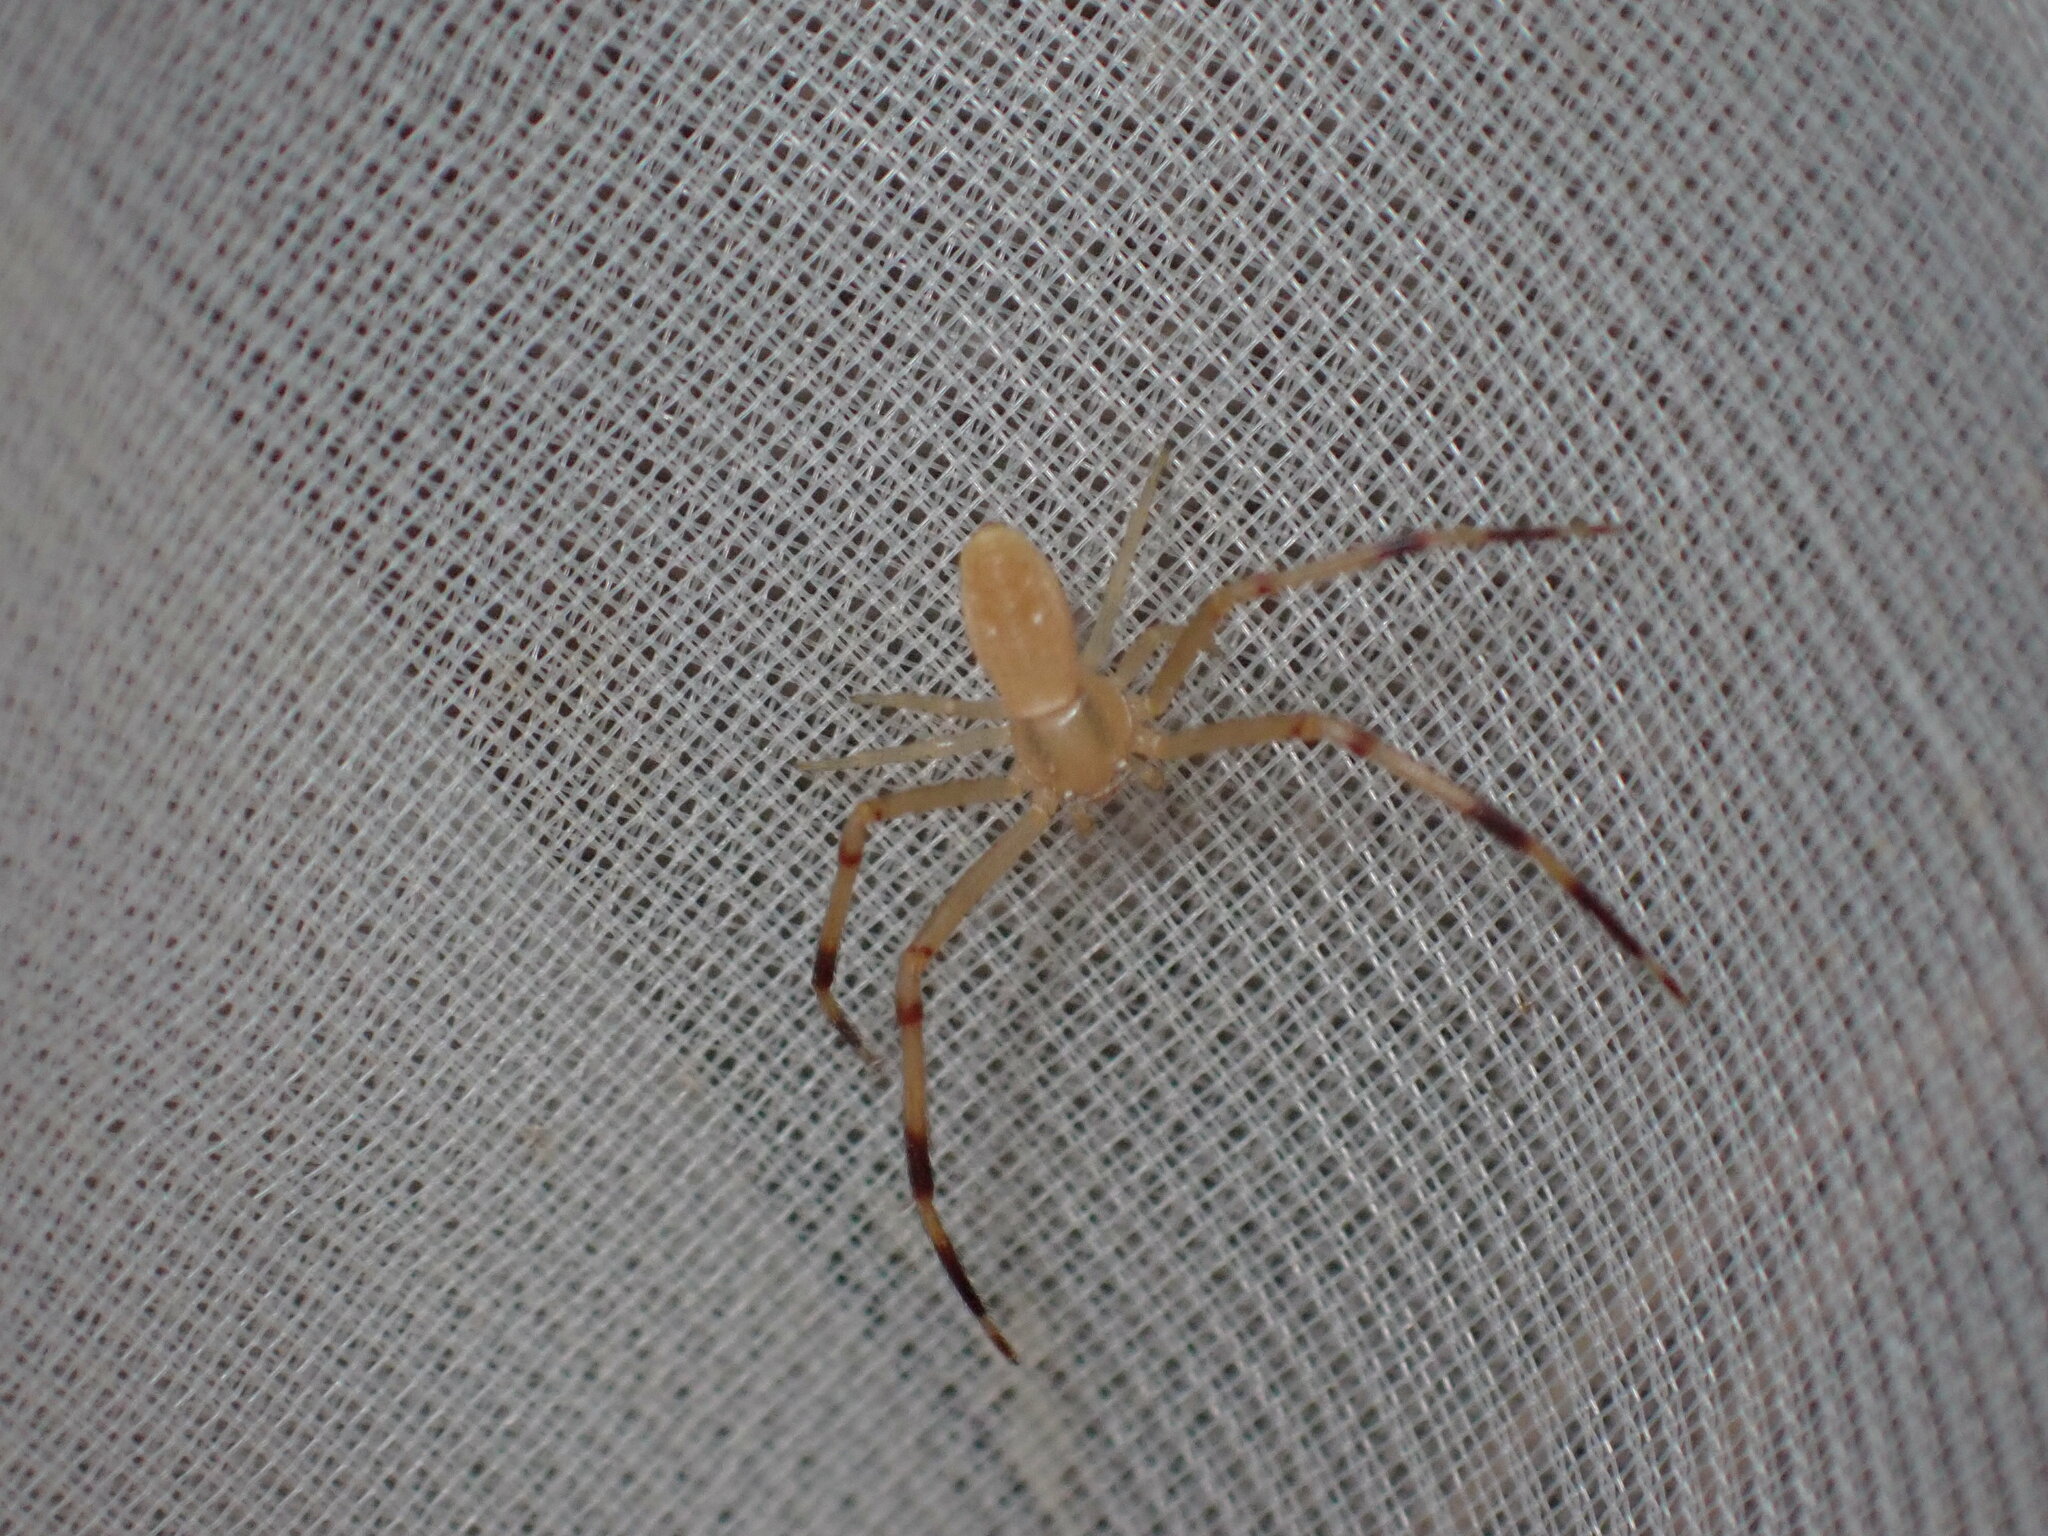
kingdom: Animalia
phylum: Arthropoda
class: Arachnida
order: Araneae
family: Thomisidae
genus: Runcinia
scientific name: Runcinia grammica
